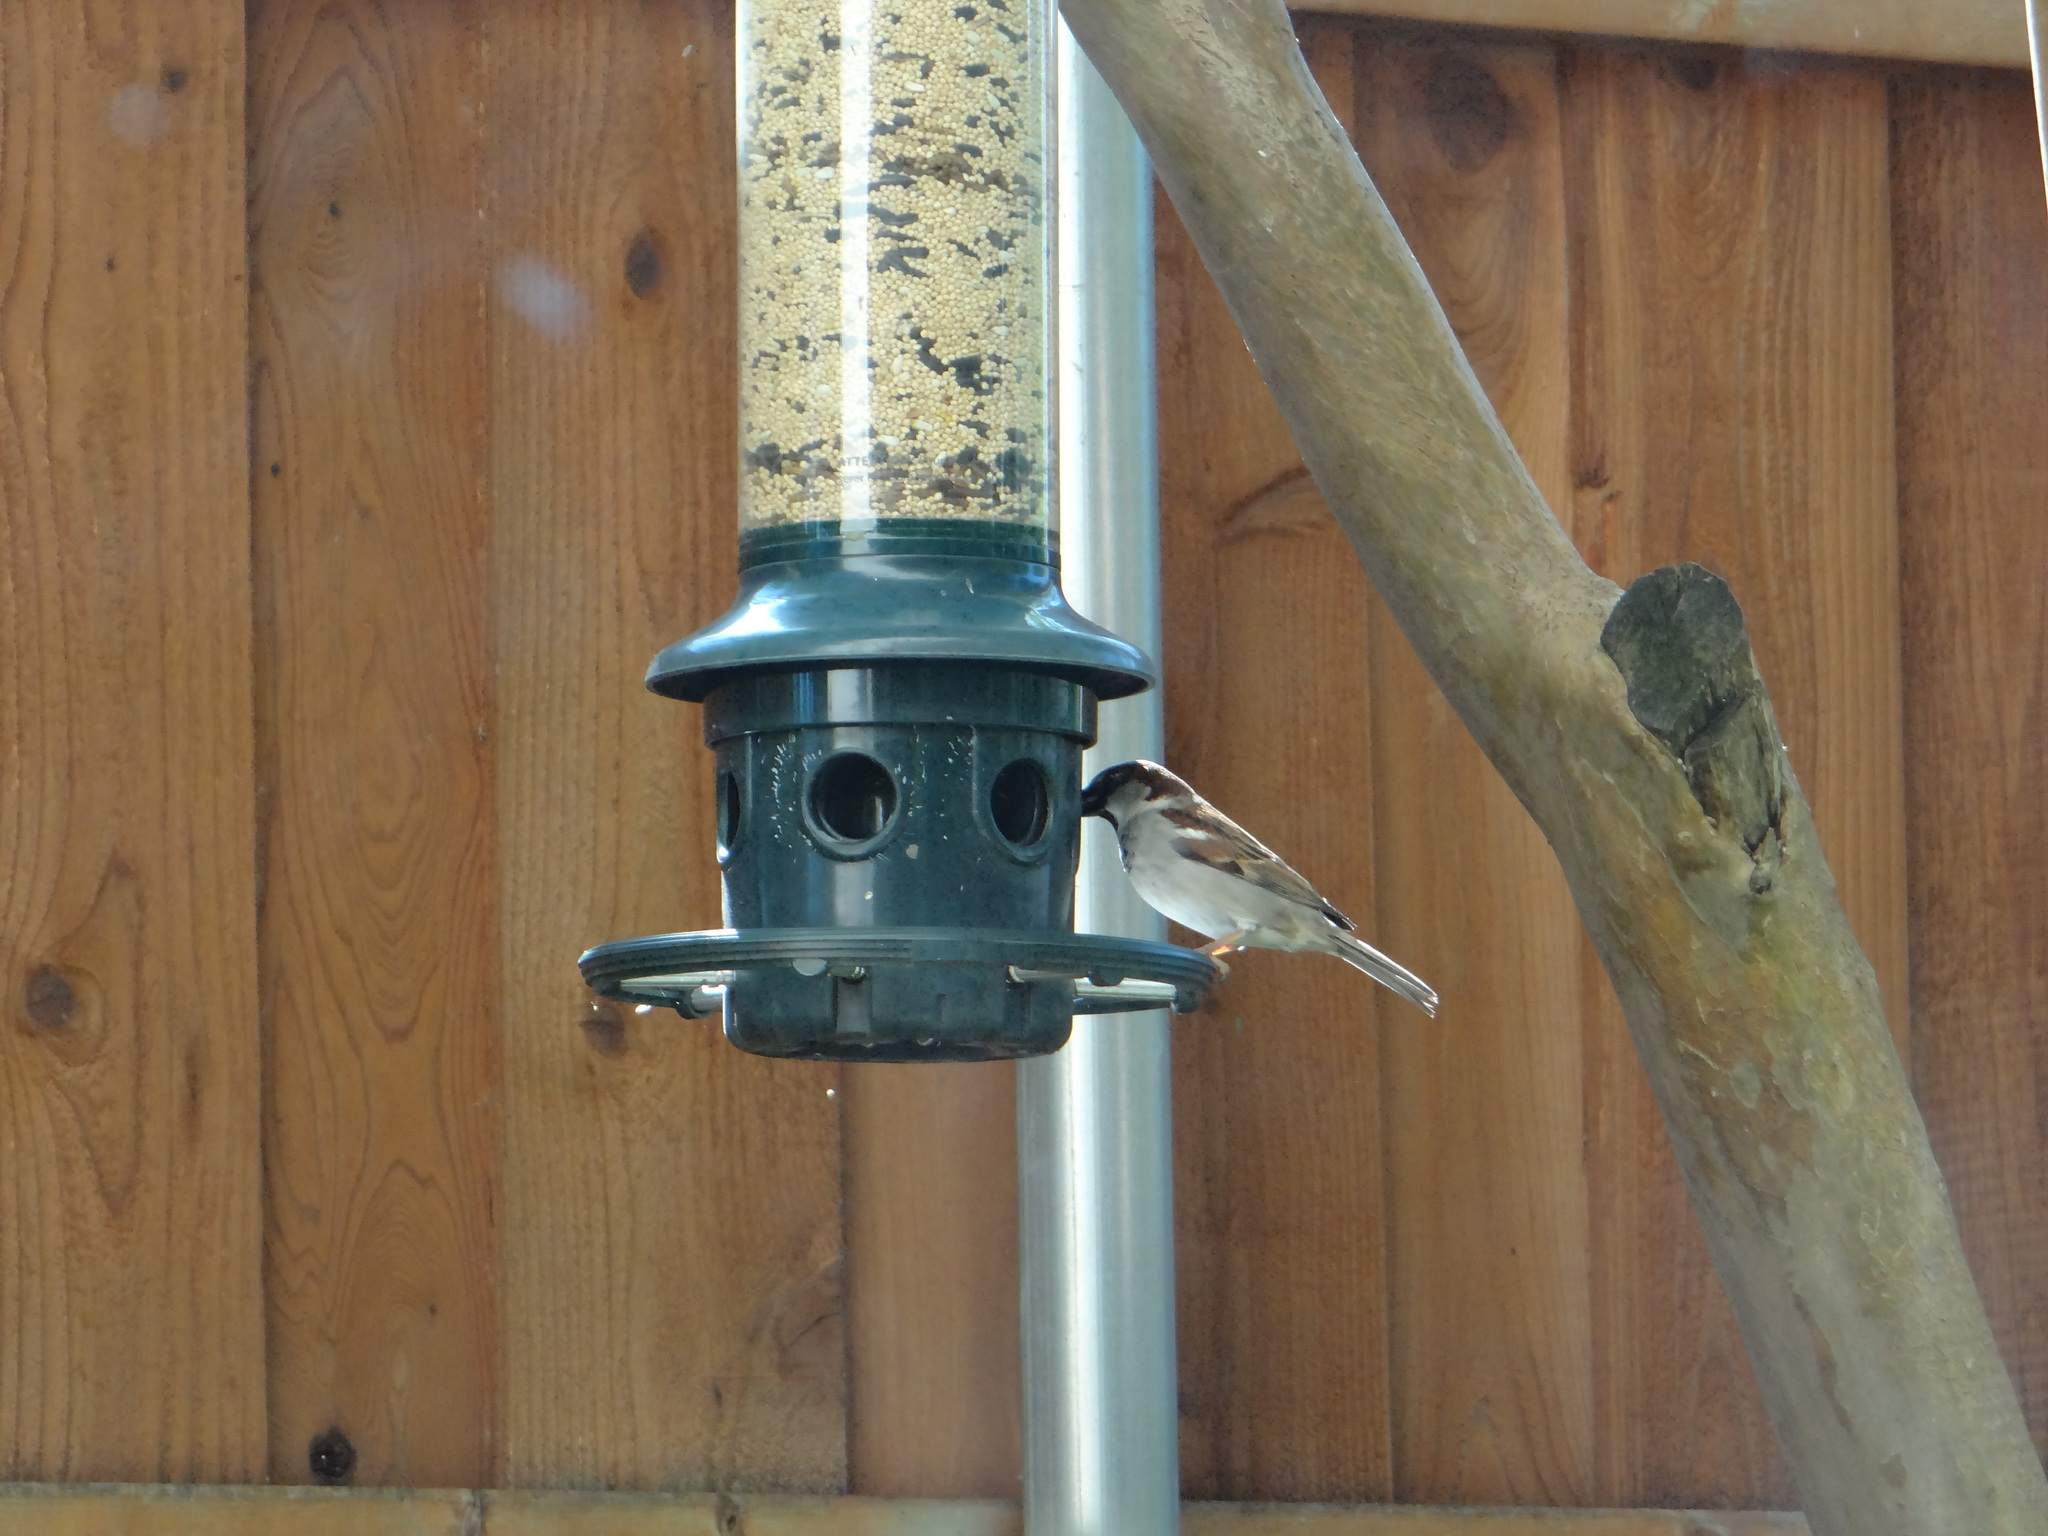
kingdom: Animalia
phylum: Chordata
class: Aves
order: Passeriformes
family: Passeridae
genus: Passer
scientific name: Passer domesticus
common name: House sparrow
